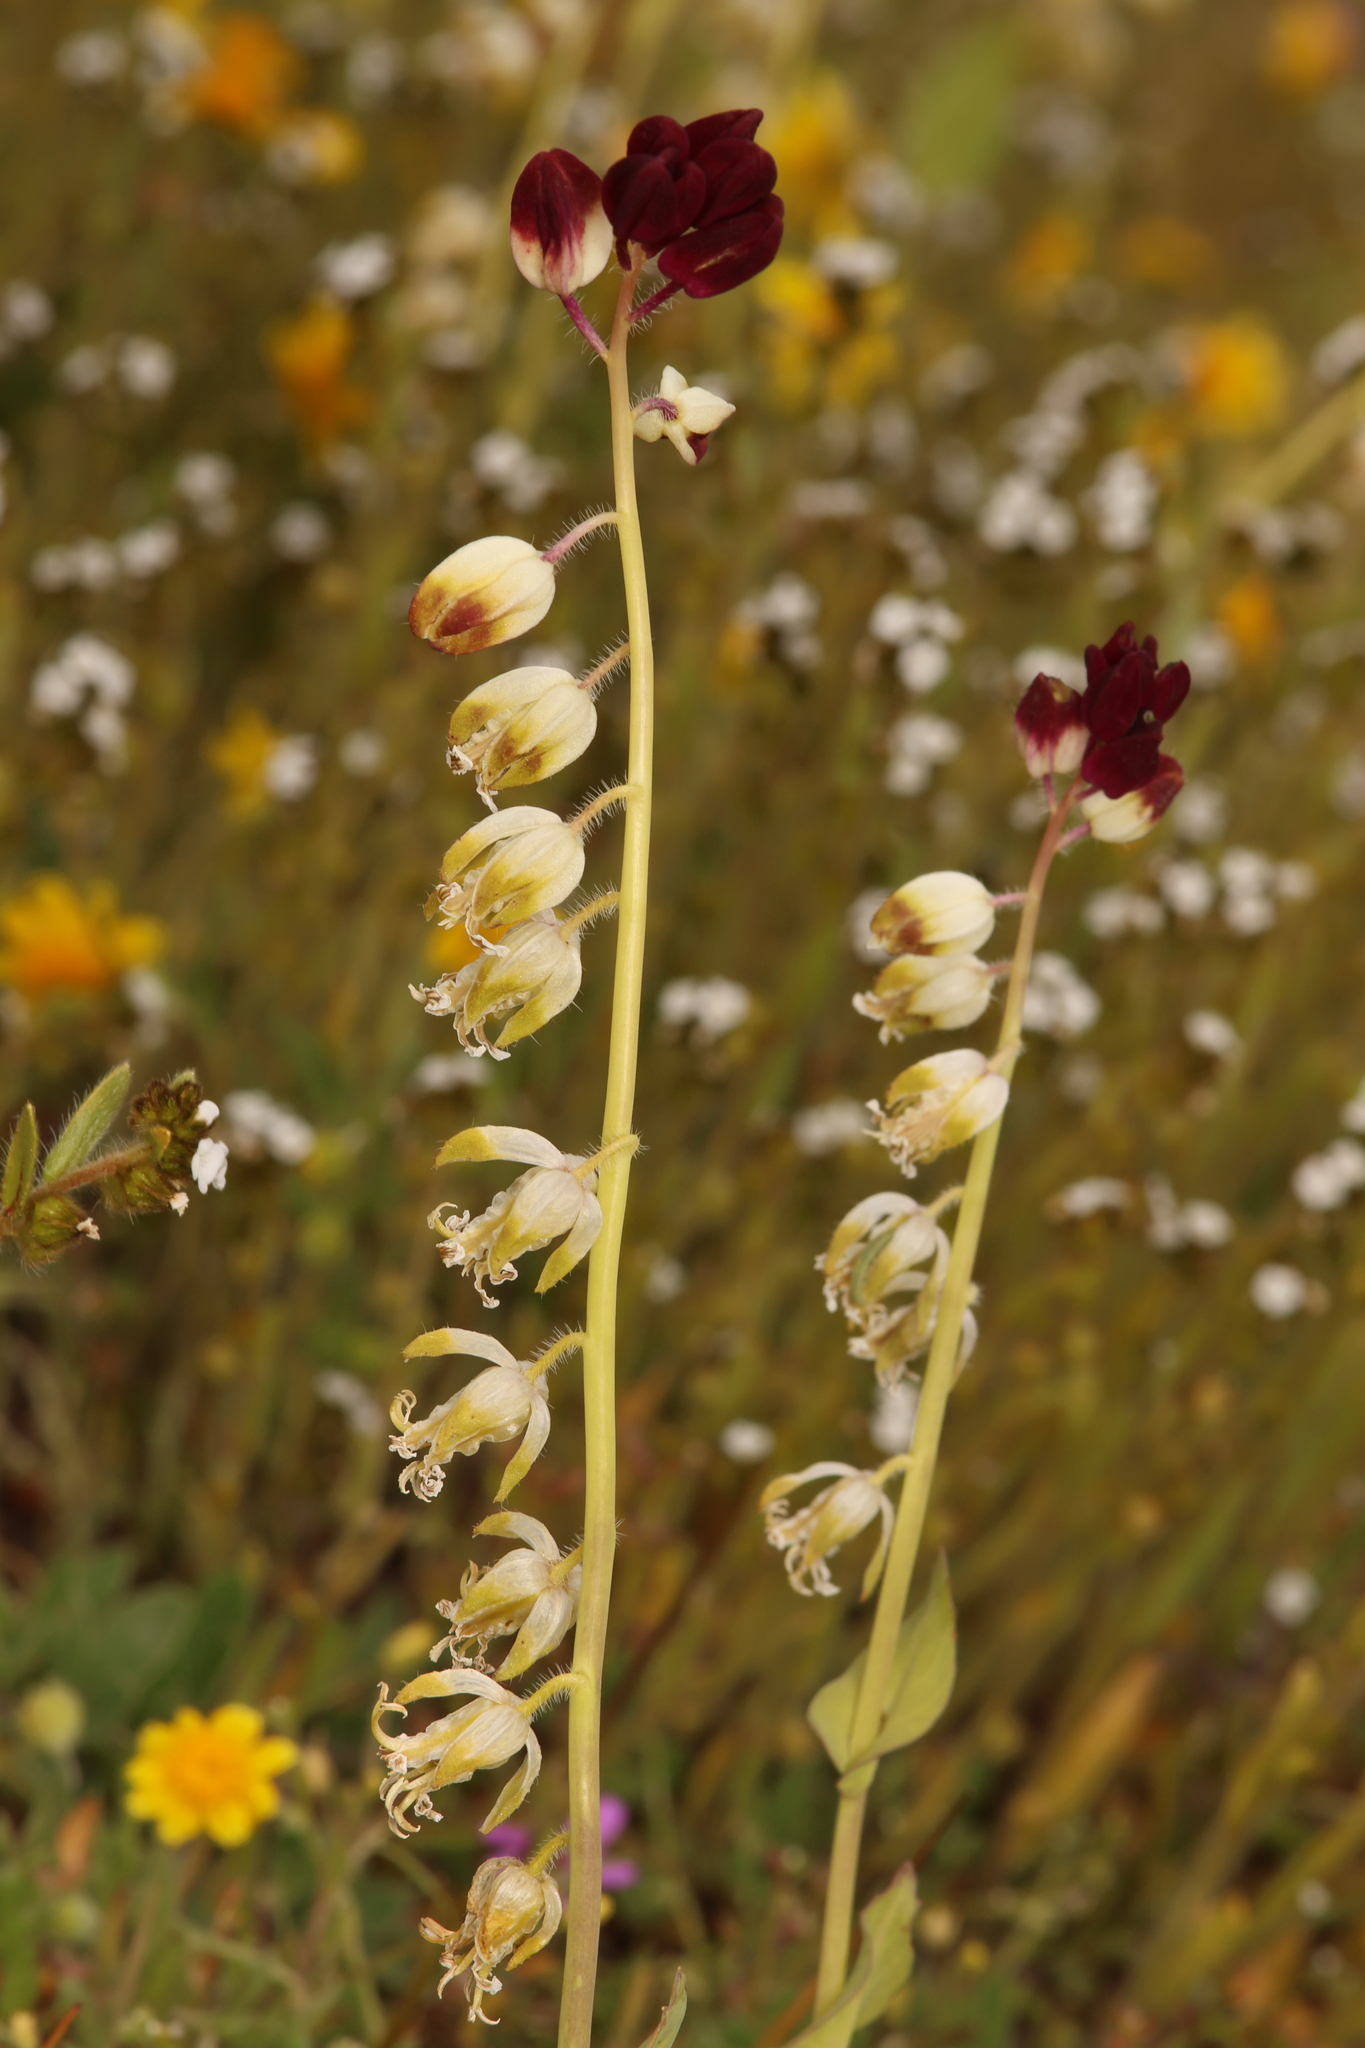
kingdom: Plantae
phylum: Tracheophyta
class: Magnoliopsida
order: Brassicales
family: Brassicaceae
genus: Streptanthus
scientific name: Streptanthus californicus
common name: California-jewel-flower
